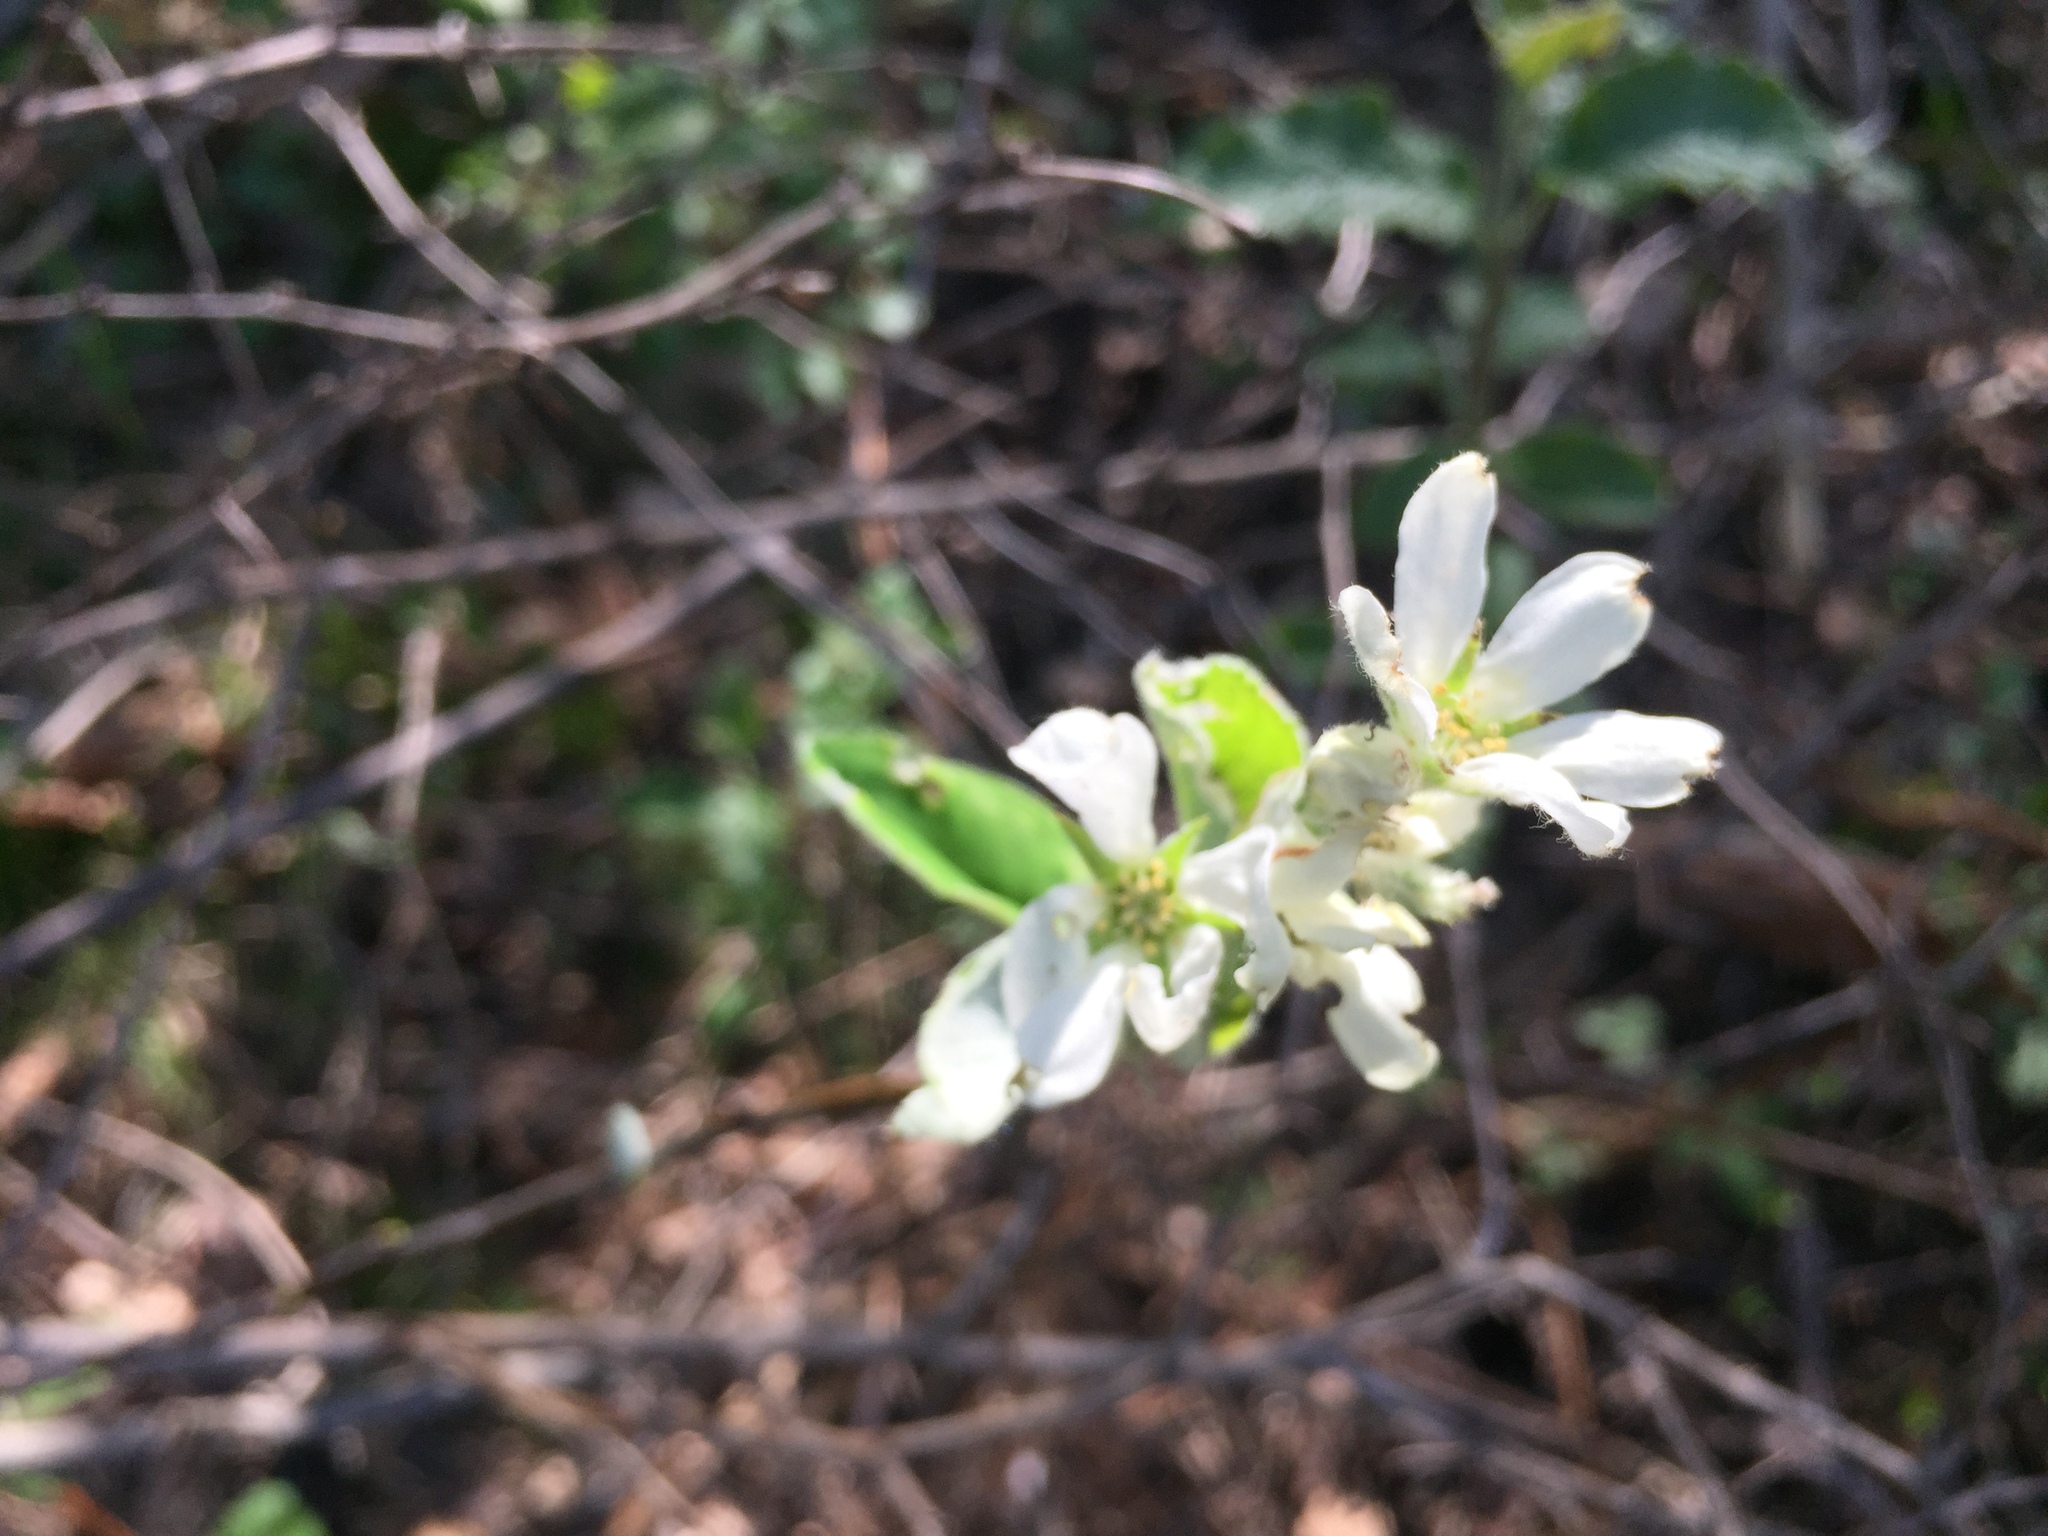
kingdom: Plantae
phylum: Tracheophyta
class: Magnoliopsida
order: Rosales
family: Rosaceae
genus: Amelanchier
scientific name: Amelanchier ovalis
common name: Serviceberry
